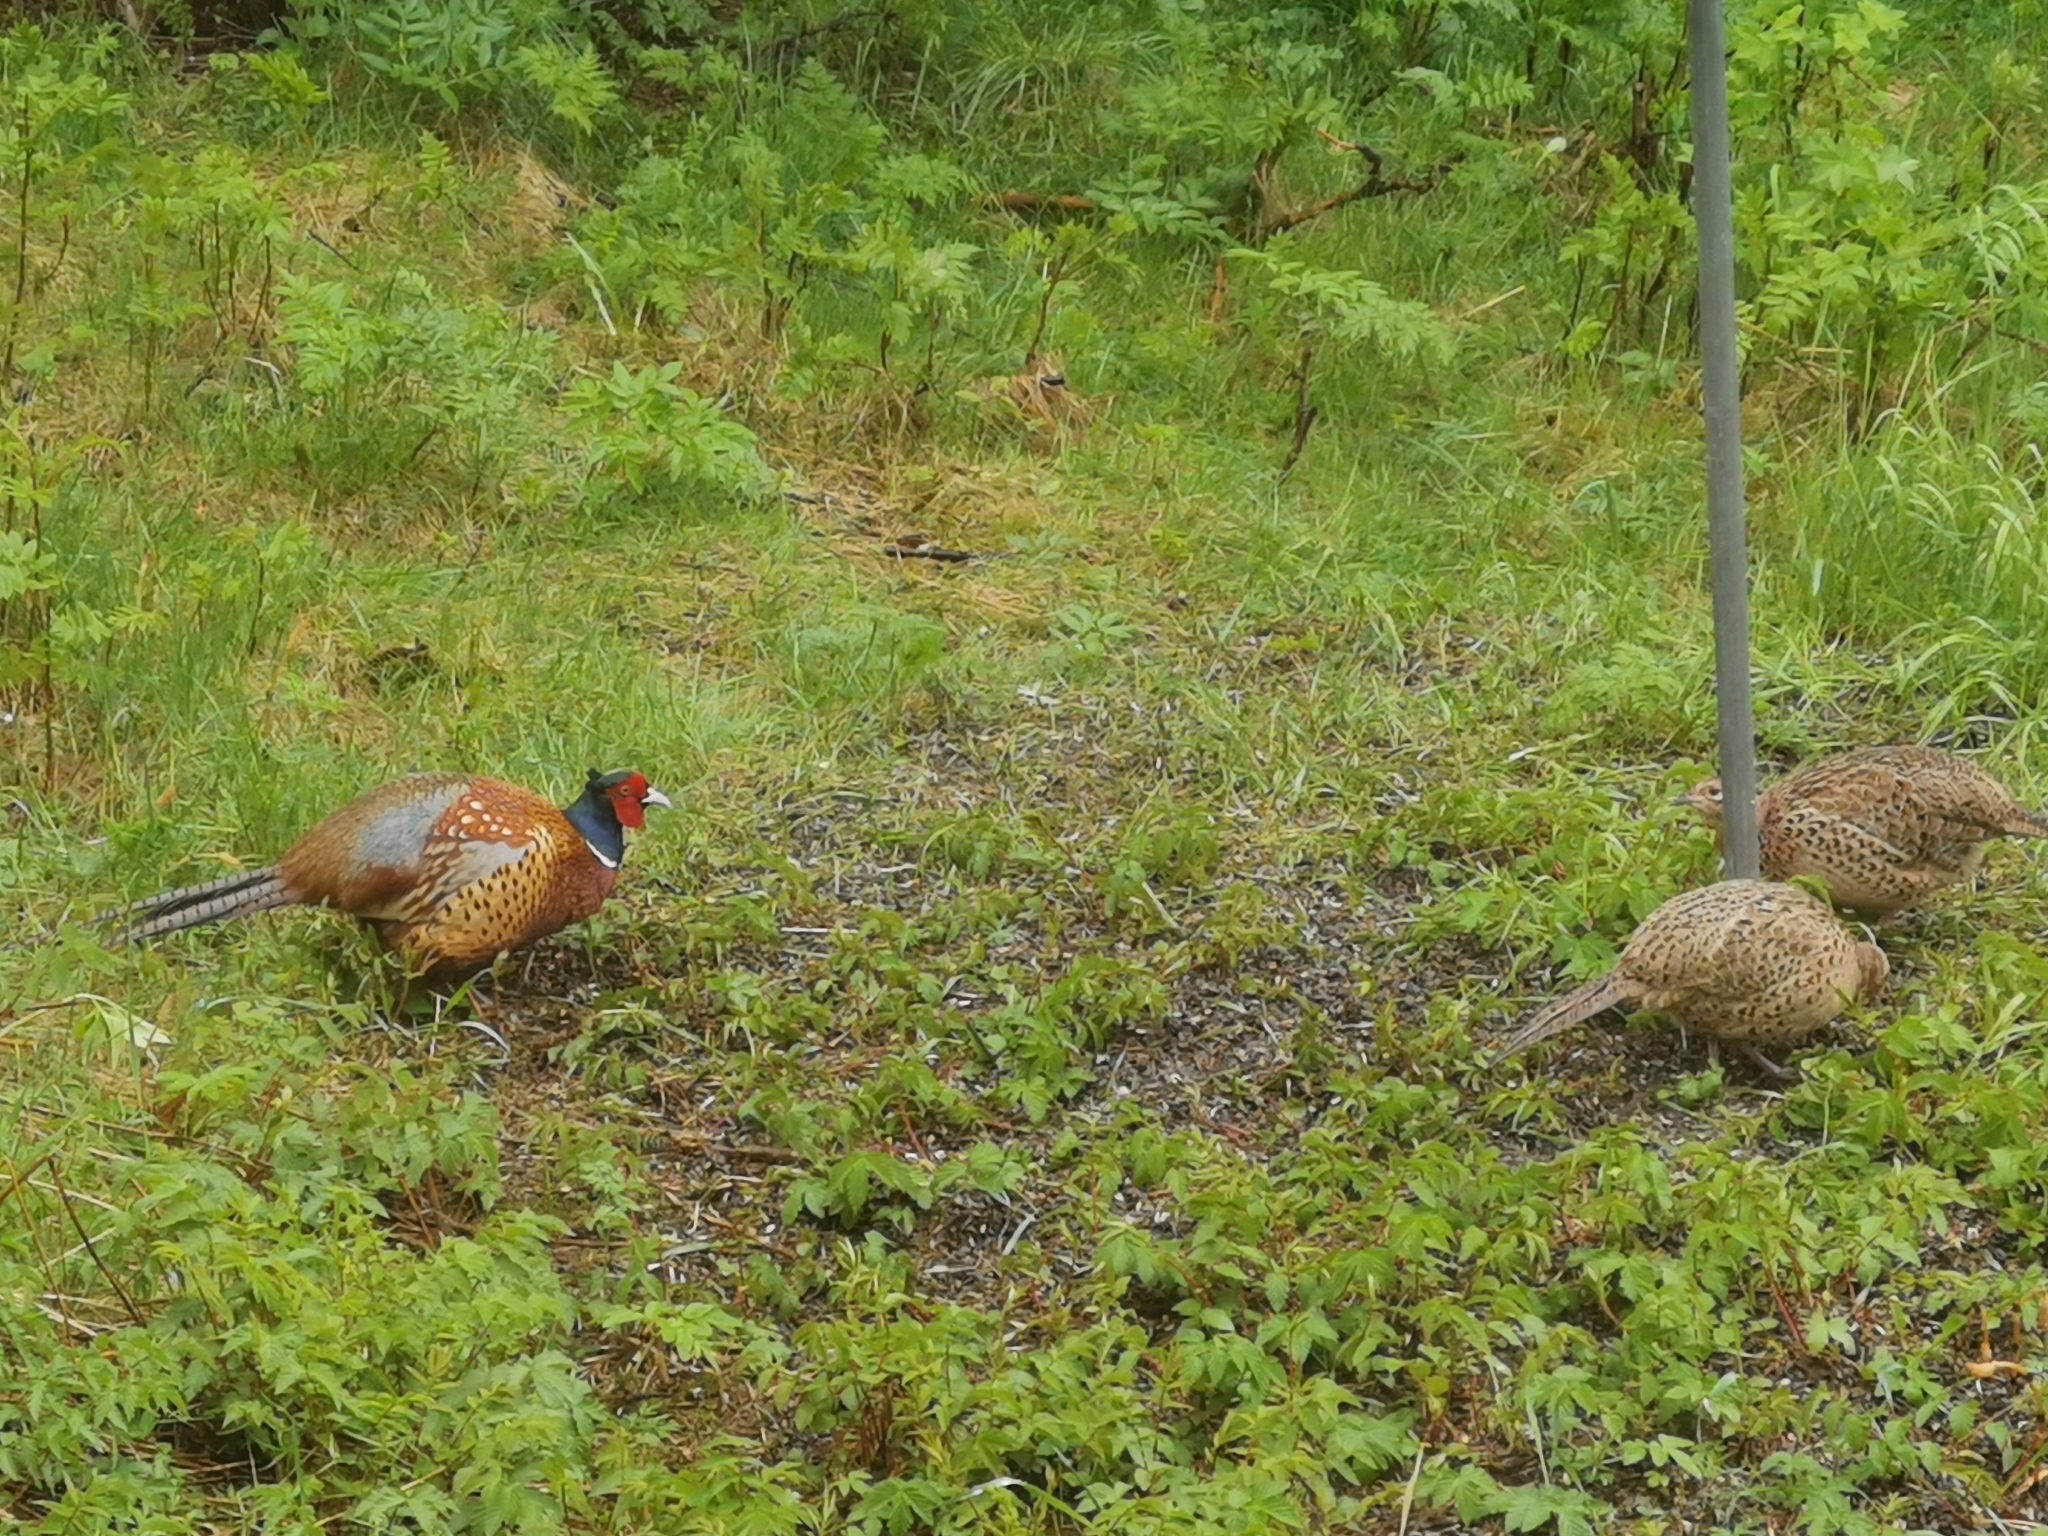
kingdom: Animalia
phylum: Chordata
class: Aves
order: Galliformes
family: Phasianidae
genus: Phasianus
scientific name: Phasianus colchicus
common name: Common pheasant
